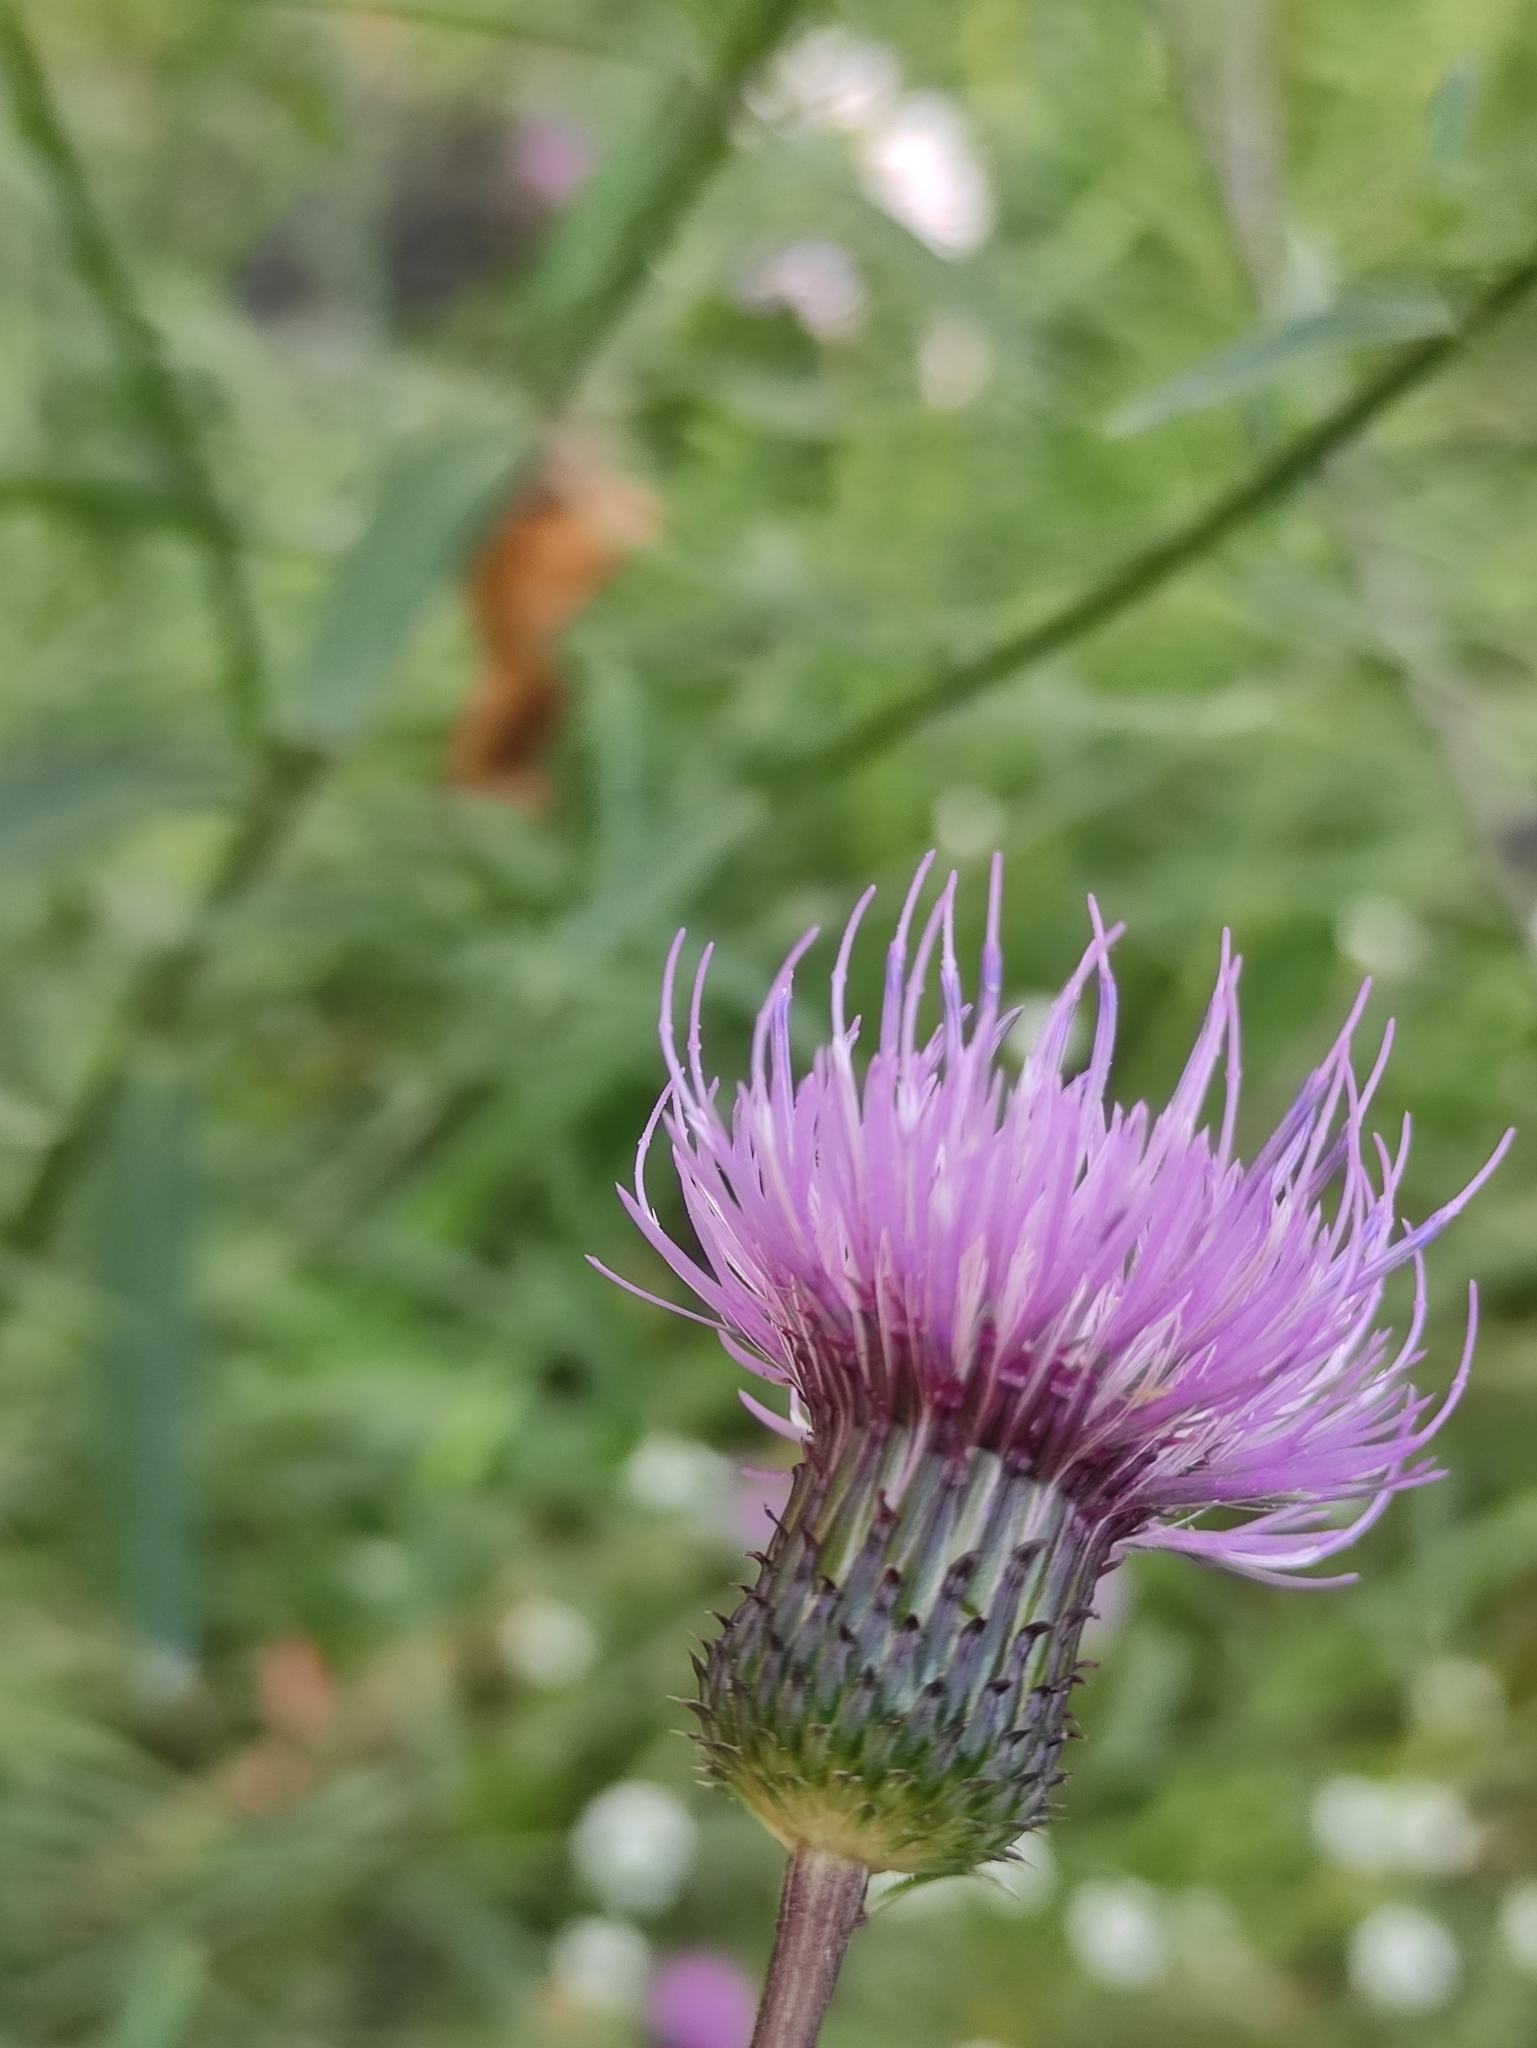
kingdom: Plantae
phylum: Tracheophyta
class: Magnoliopsida
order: Asterales
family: Asteraceae
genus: Cirsium
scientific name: Cirsium serratuloides
